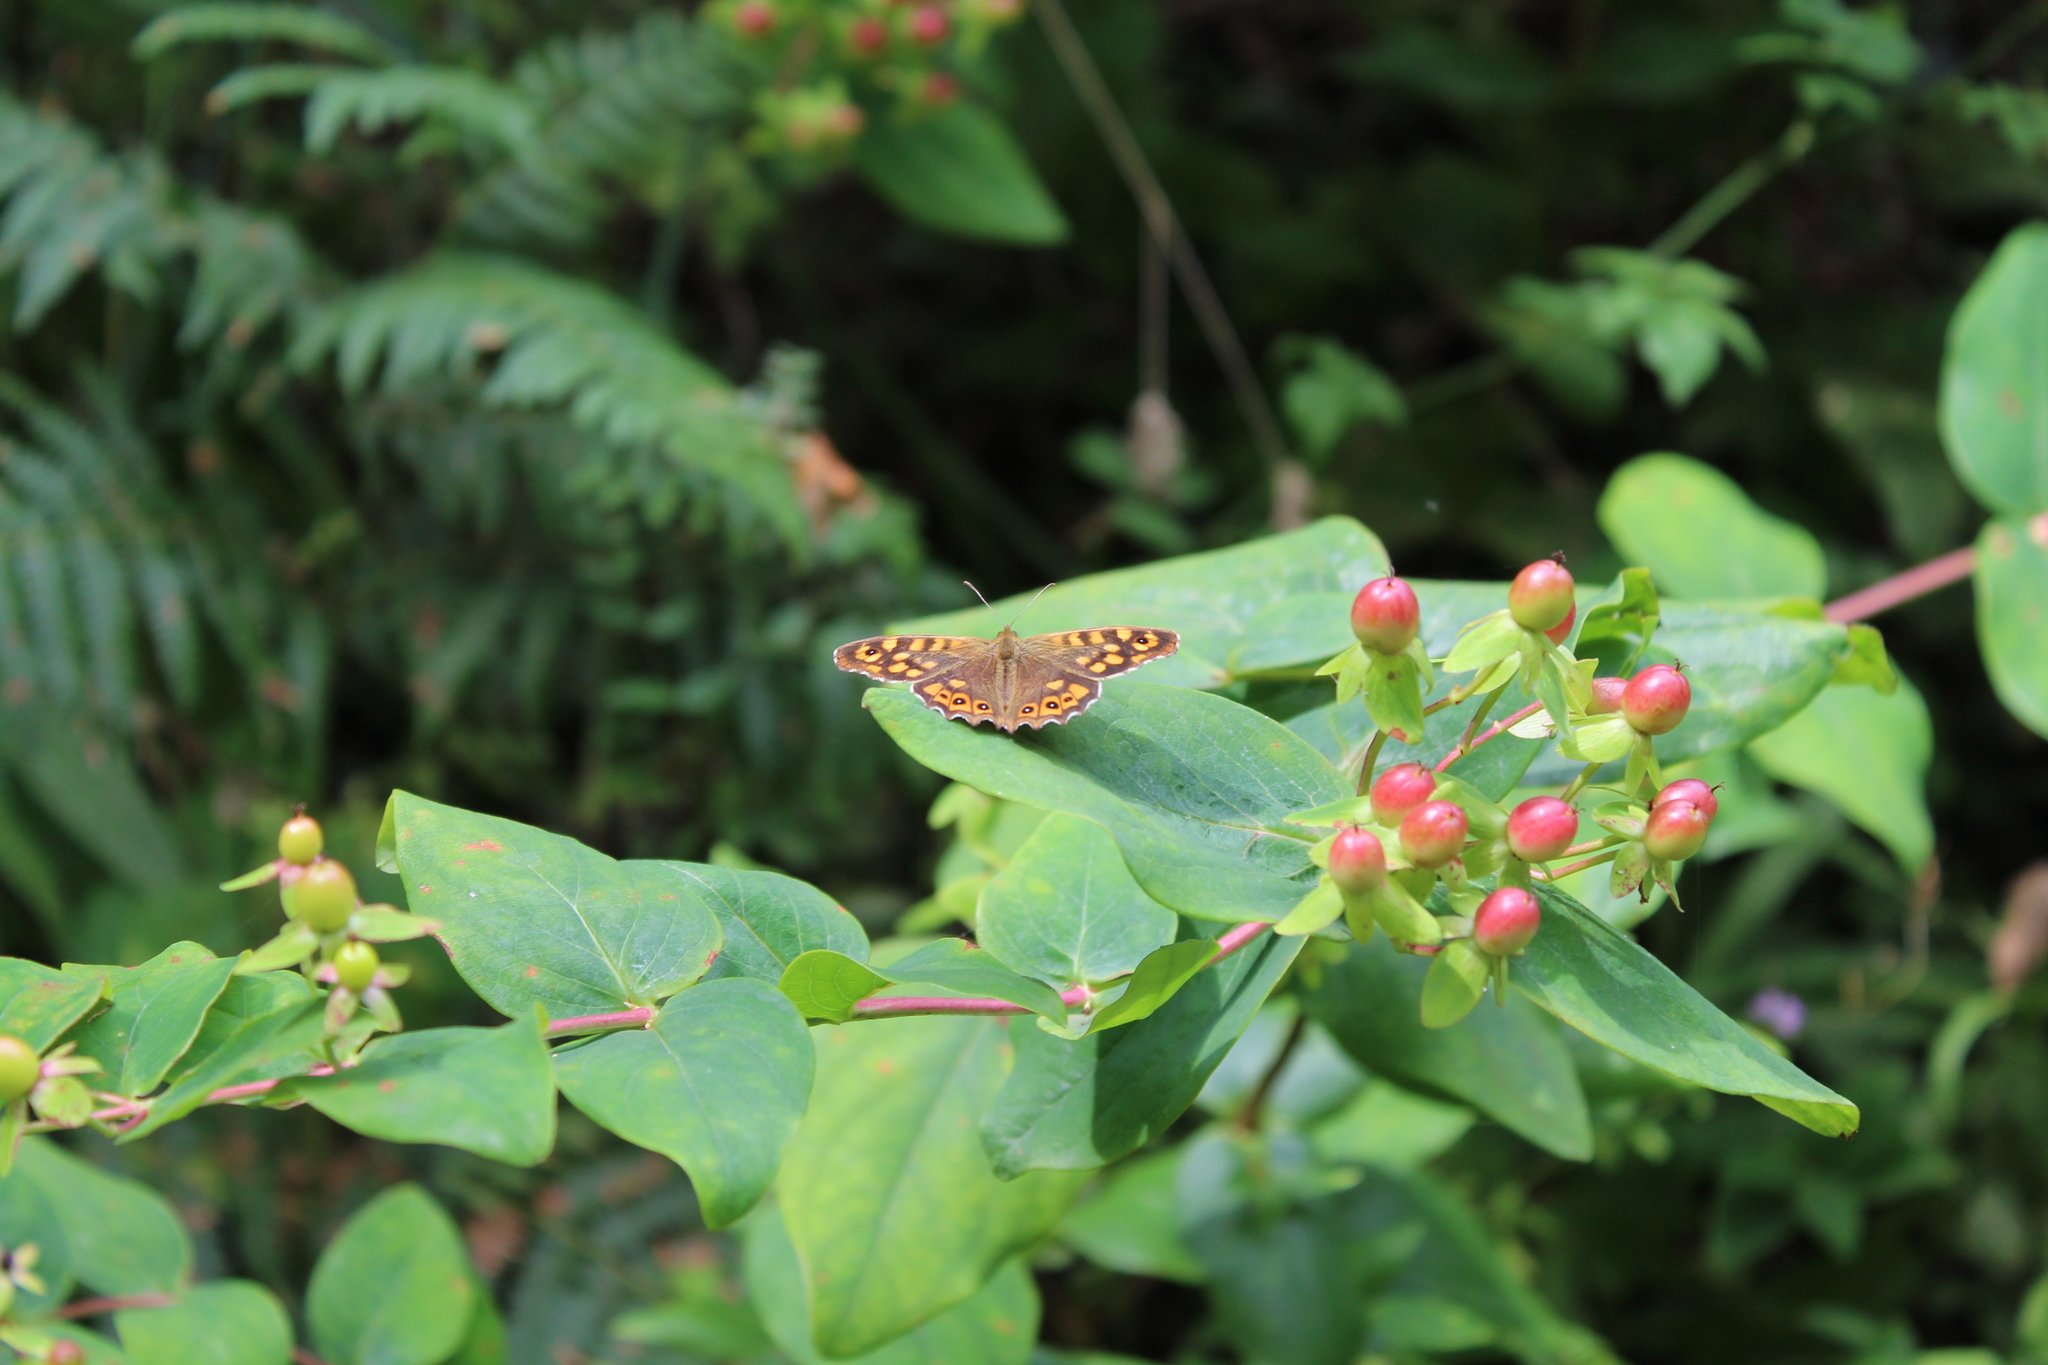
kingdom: Animalia
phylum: Arthropoda
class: Insecta
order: Lepidoptera
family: Nymphalidae
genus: Pararge
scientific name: Pararge aegeria
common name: Speckled wood
